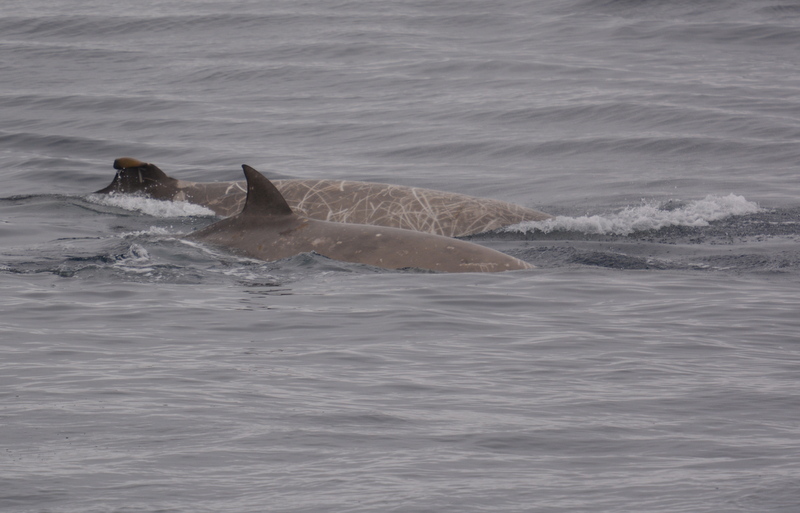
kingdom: Animalia
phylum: Chordata
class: Mammalia
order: Cetacea
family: Hyperoodontidae
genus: Hyperoodon
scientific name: Hyperoodon planifrons
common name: Southern bottlenose whale
